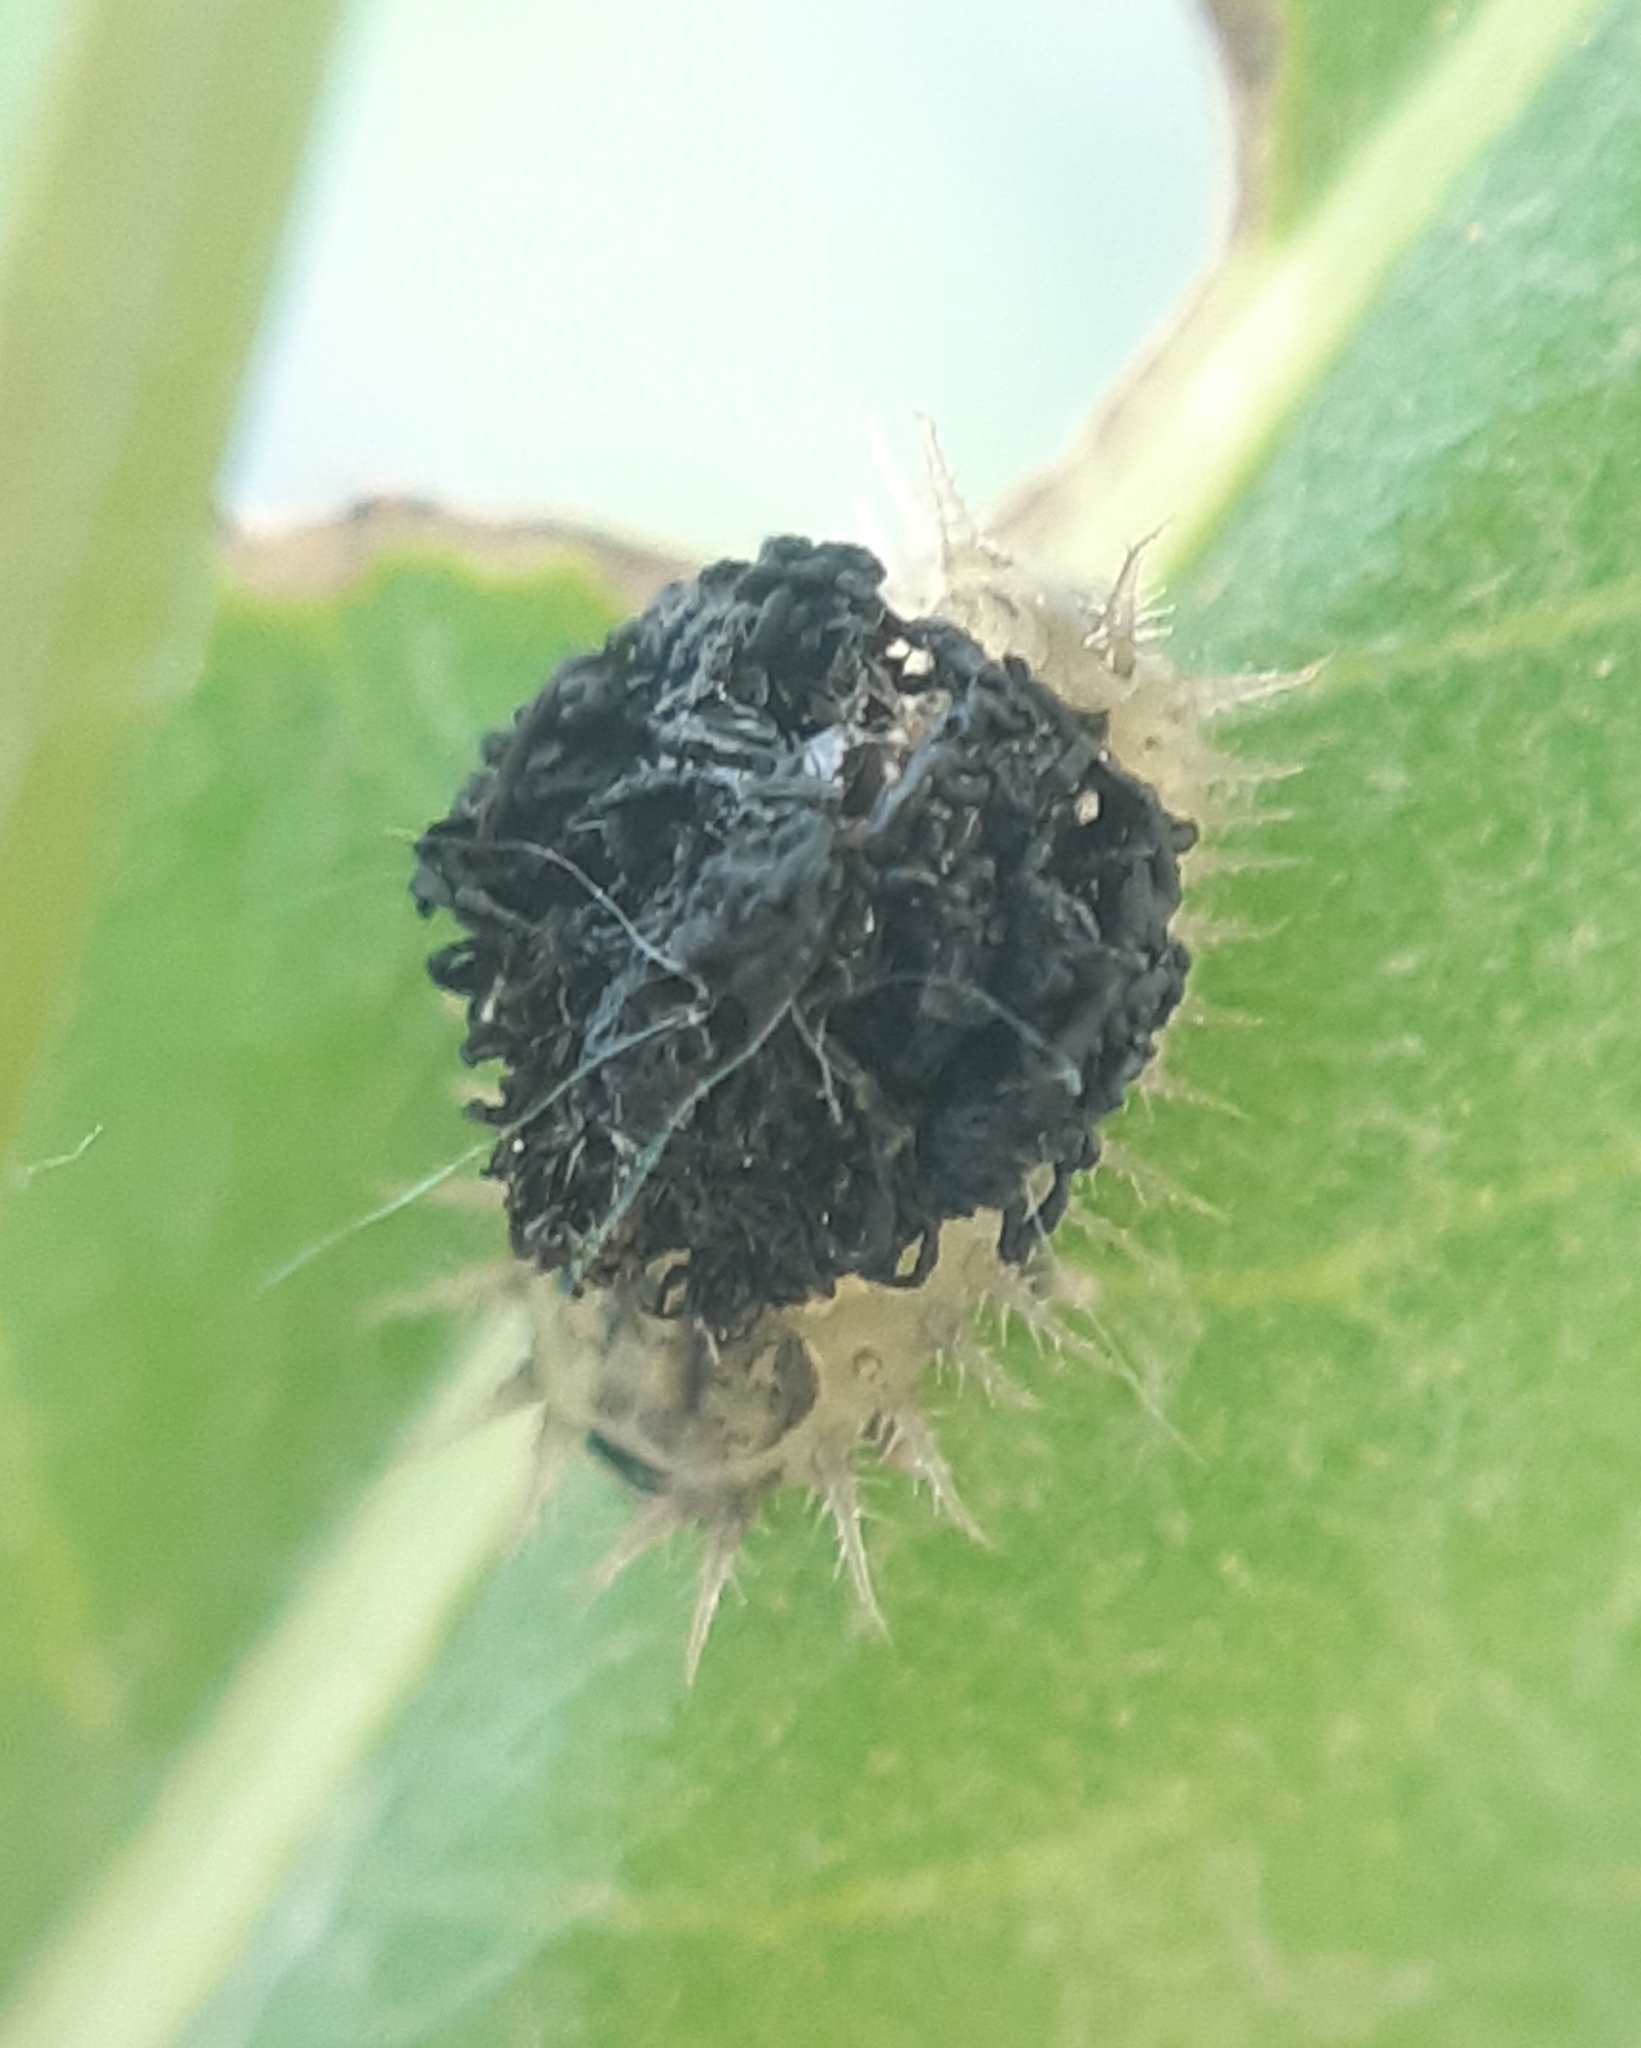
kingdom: Animalia
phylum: Arthropoda
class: Insecta
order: Coleoptera
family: Chrysomelidae
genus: Cassida
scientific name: Cassida rubiginosa
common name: Thistle tortoise beetle
